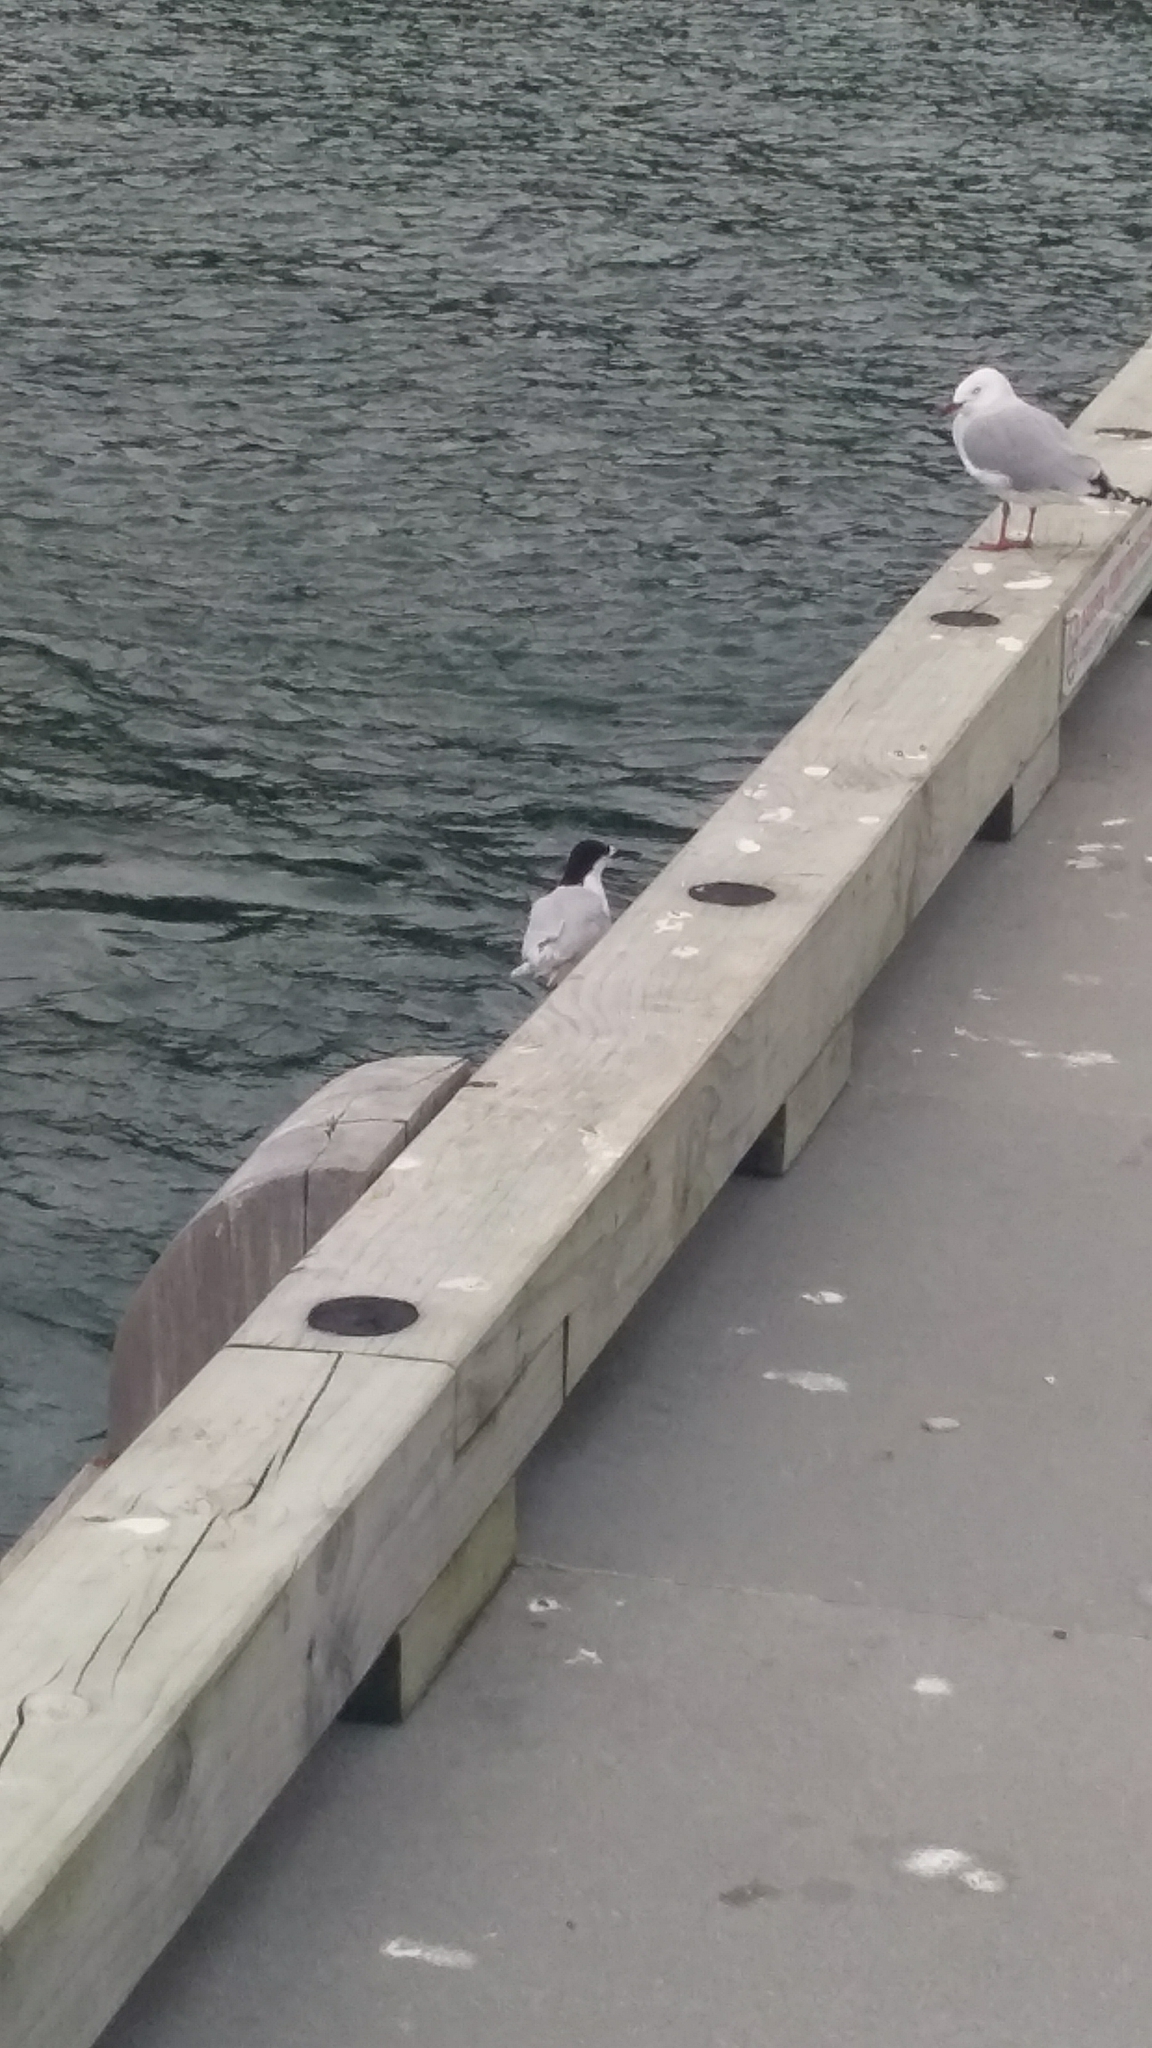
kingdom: Animalia
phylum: Chordata
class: Aves
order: Charadriiformes
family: Laridae
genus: Sterna
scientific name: Sterna striata
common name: White-fronted tern
